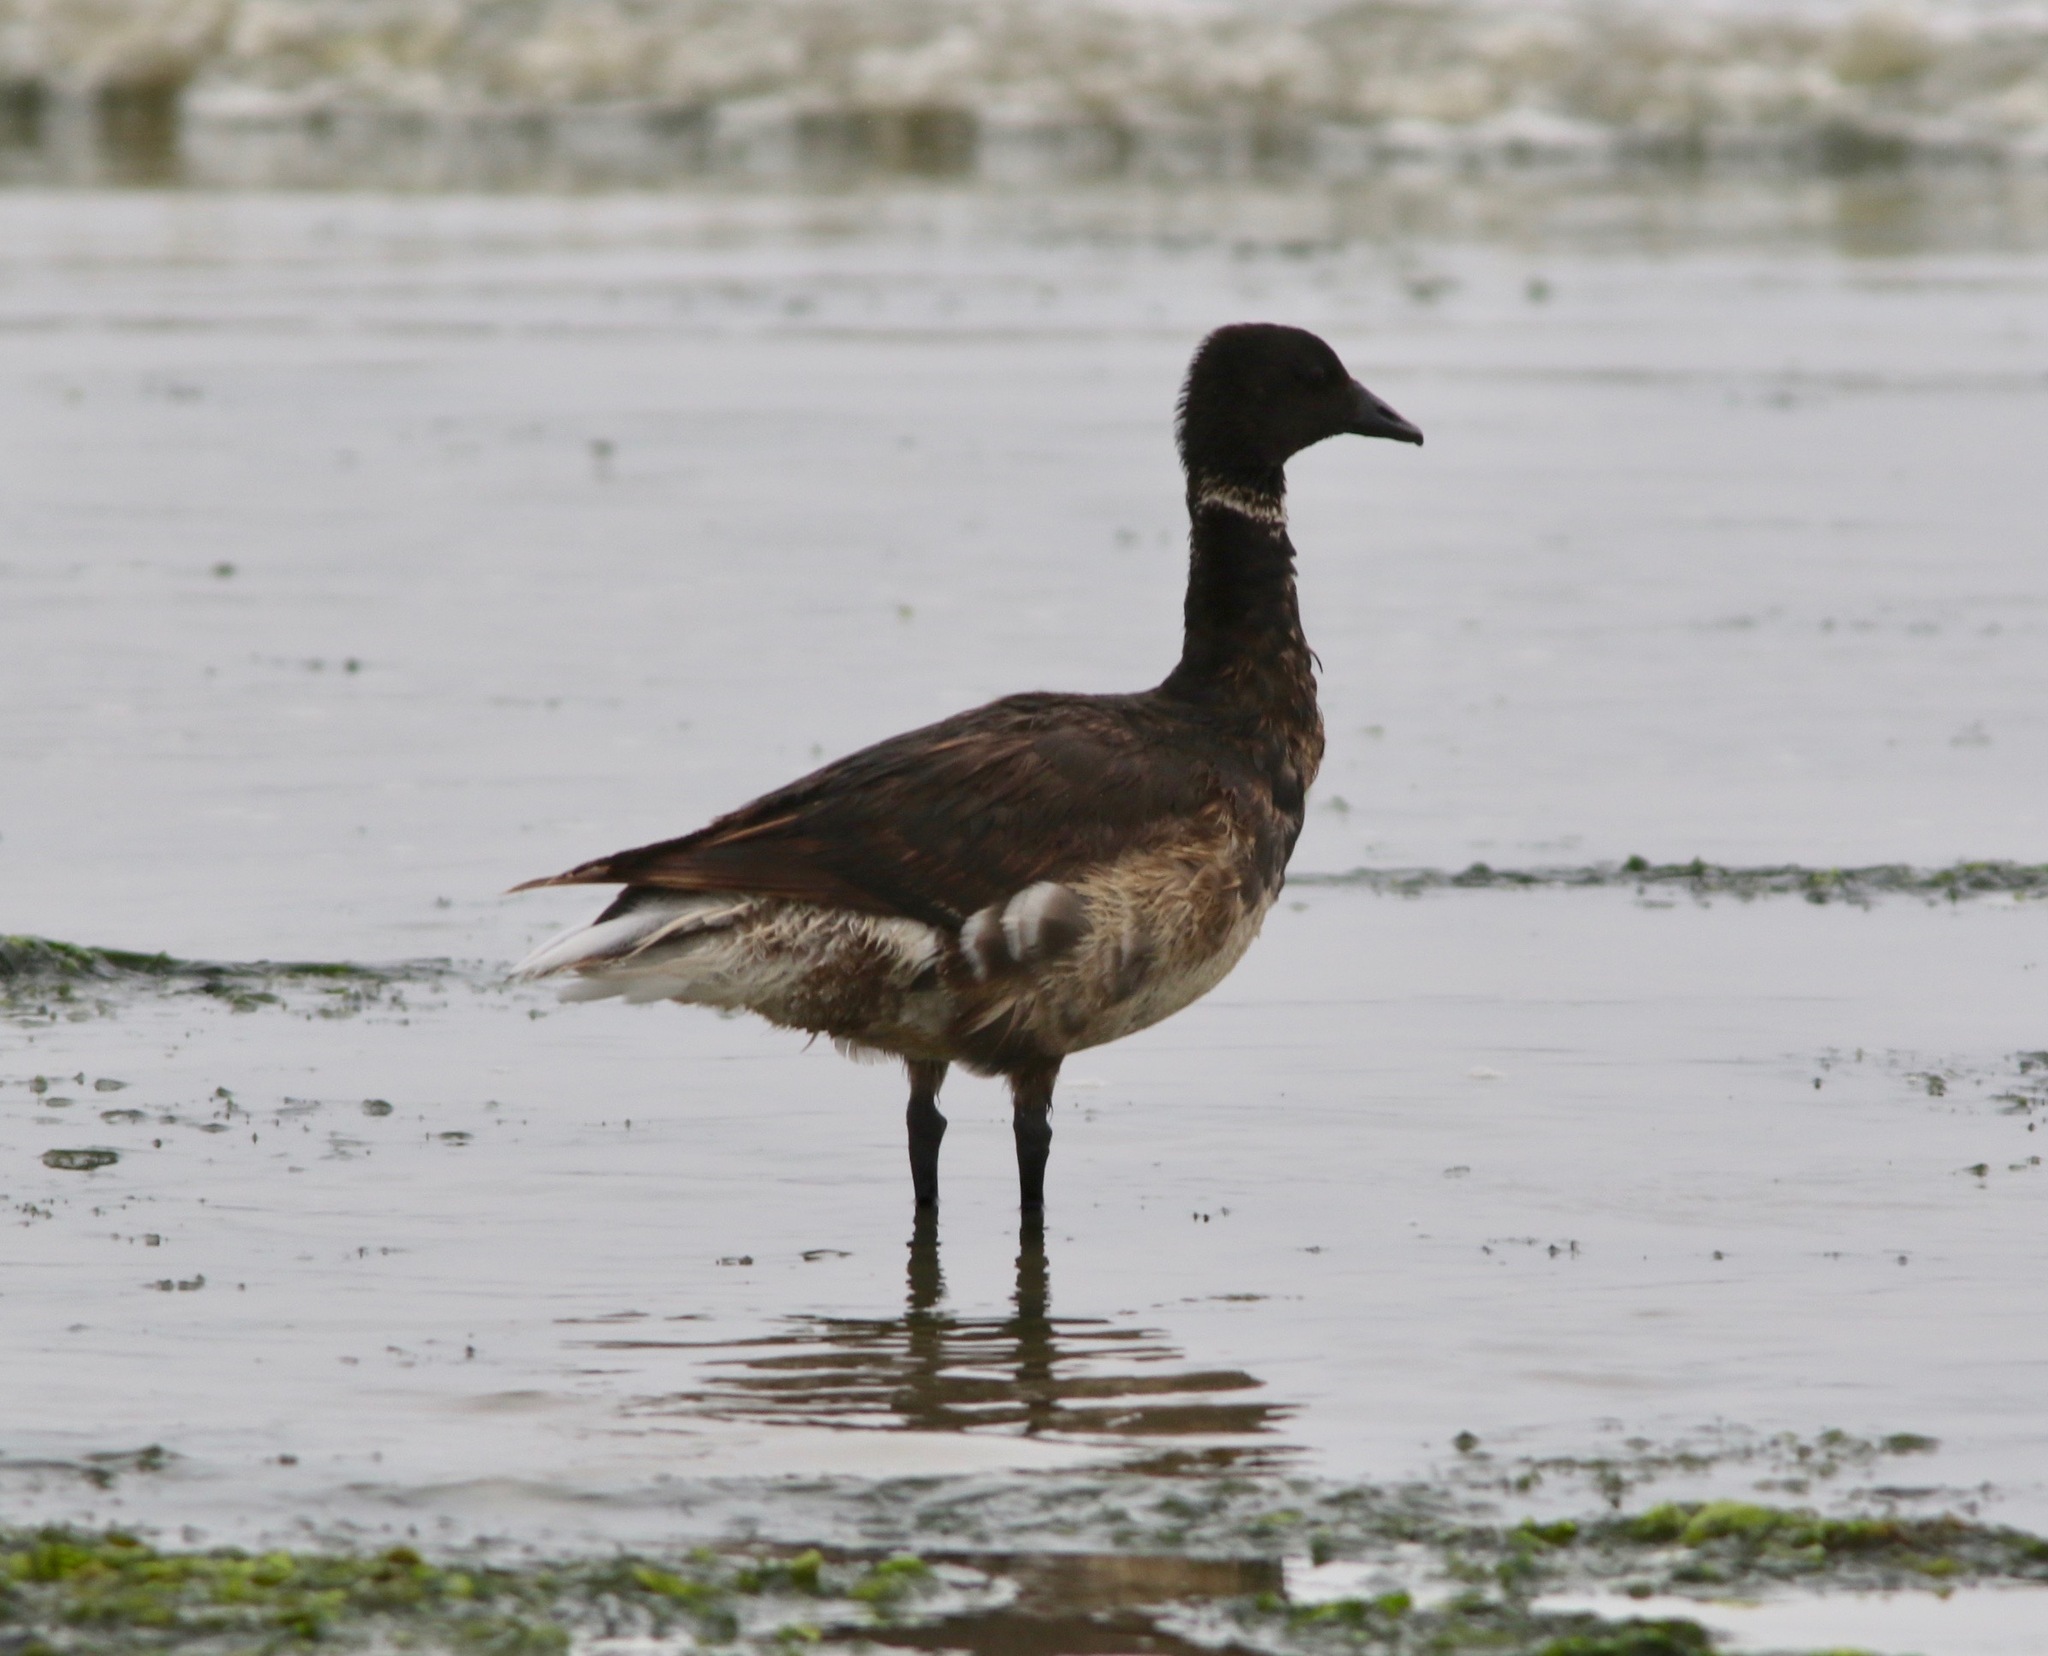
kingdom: Animalia
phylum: Chordata
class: Aves
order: Anseriformes
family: Anatidae
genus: Branta
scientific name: Branta bernicla
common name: Brant goose
